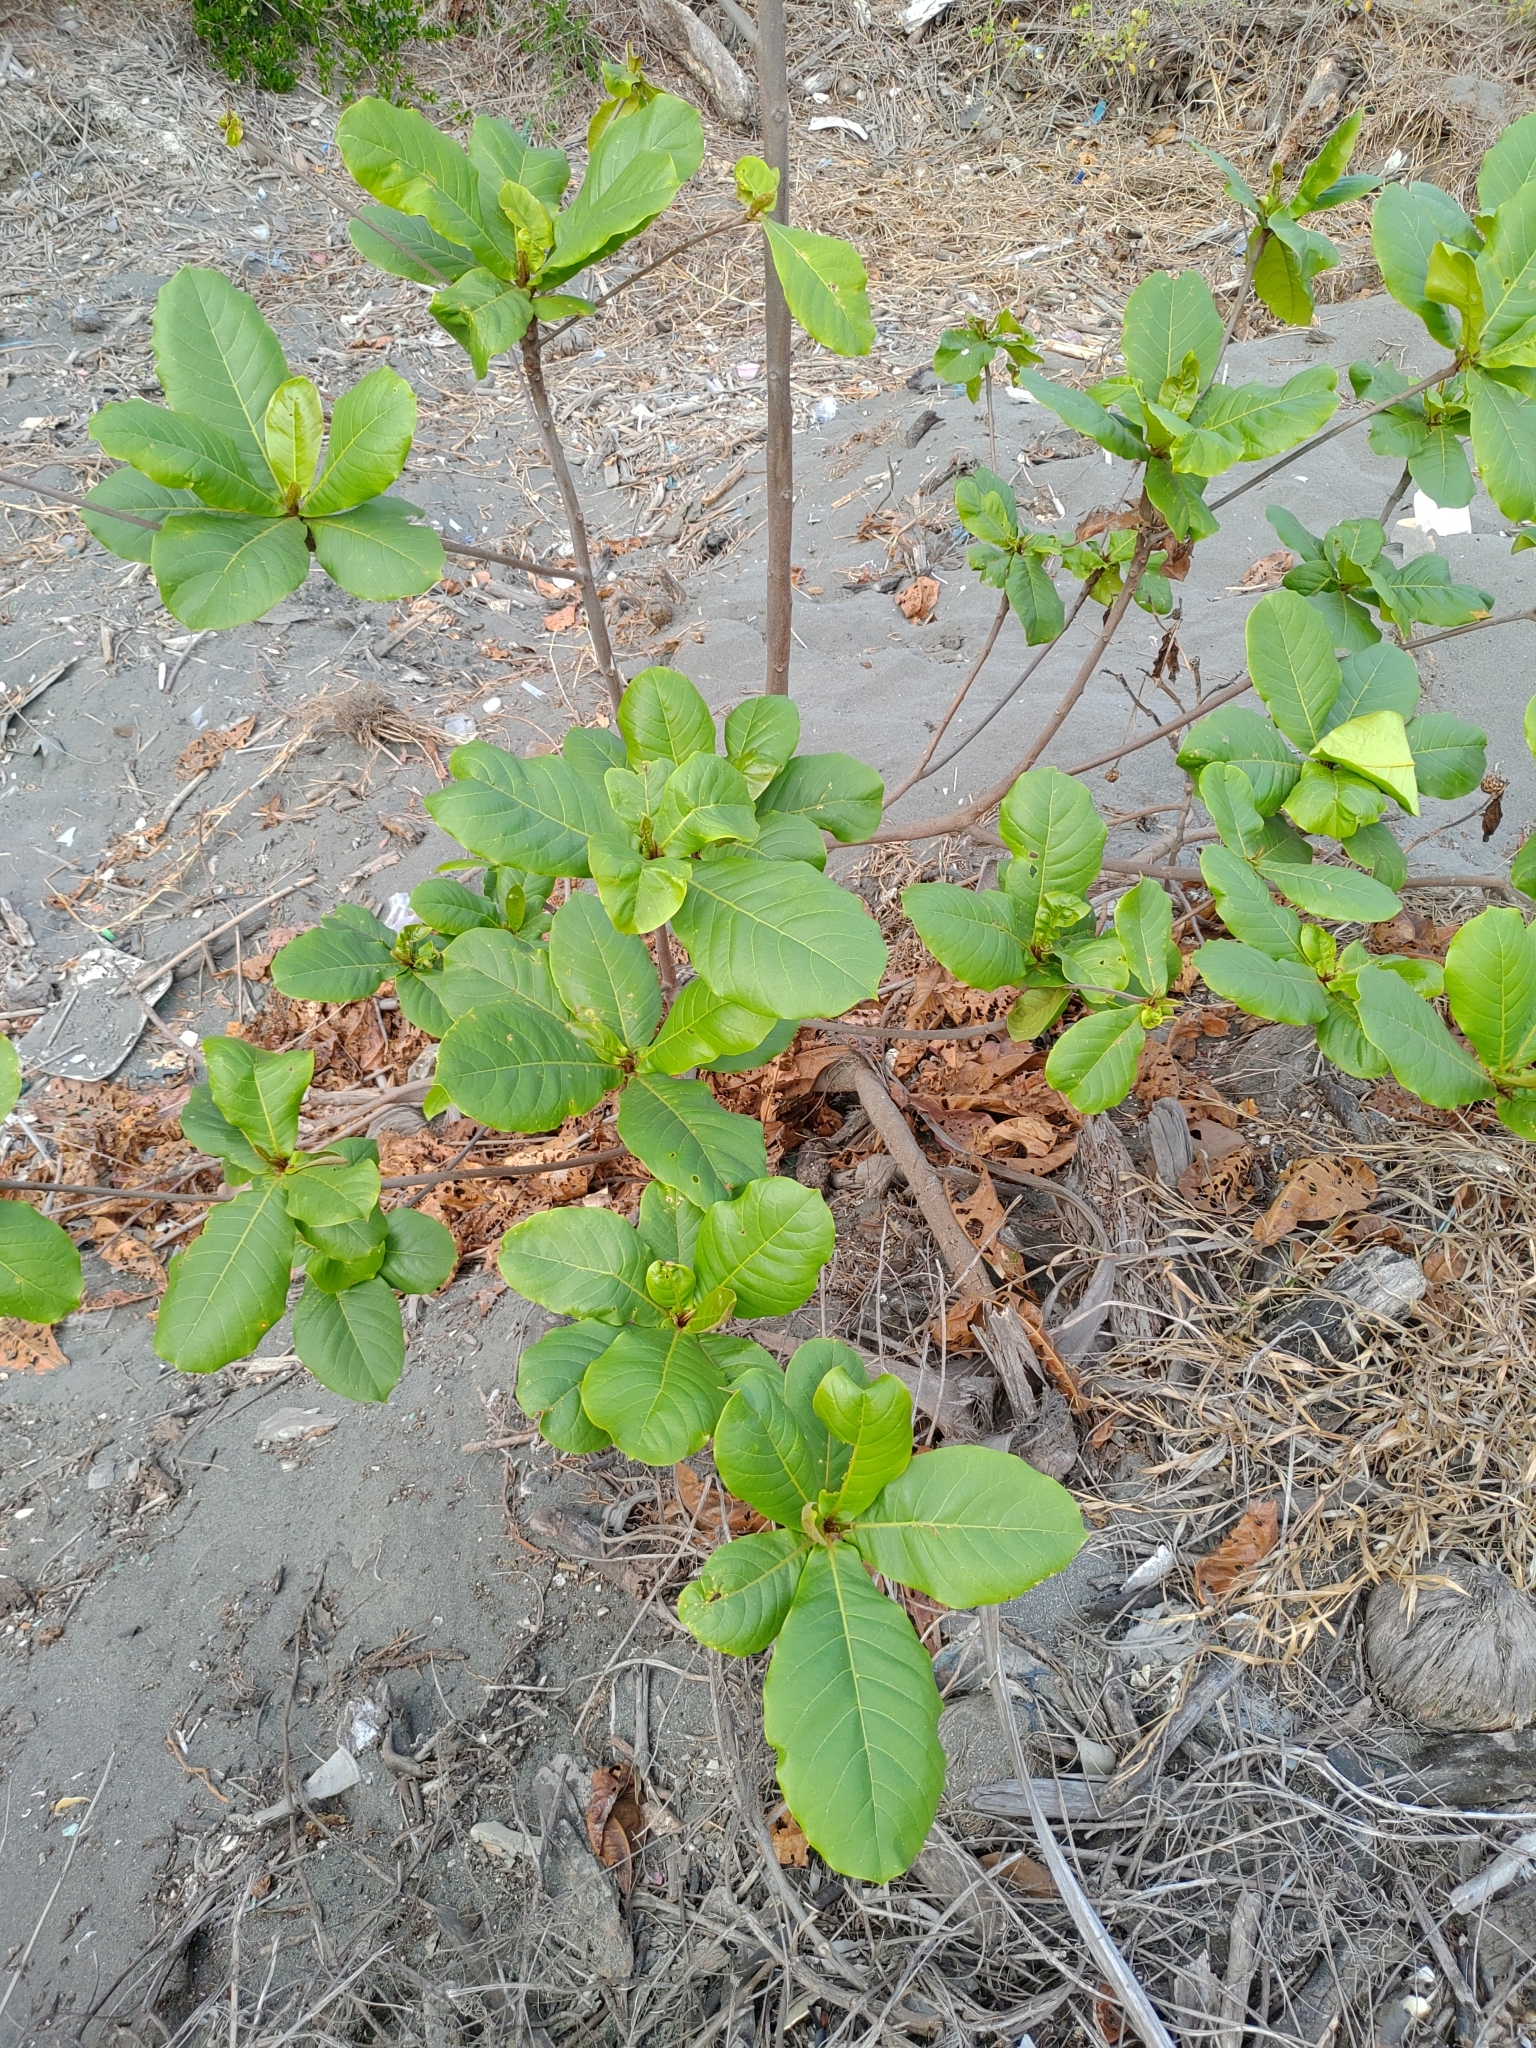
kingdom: Plantae
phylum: Tracheophyta
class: Magnoliopsida
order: Myrtales
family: Combretaceae
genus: Terminalia
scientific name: Terminalia catappa
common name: Tropical almond
